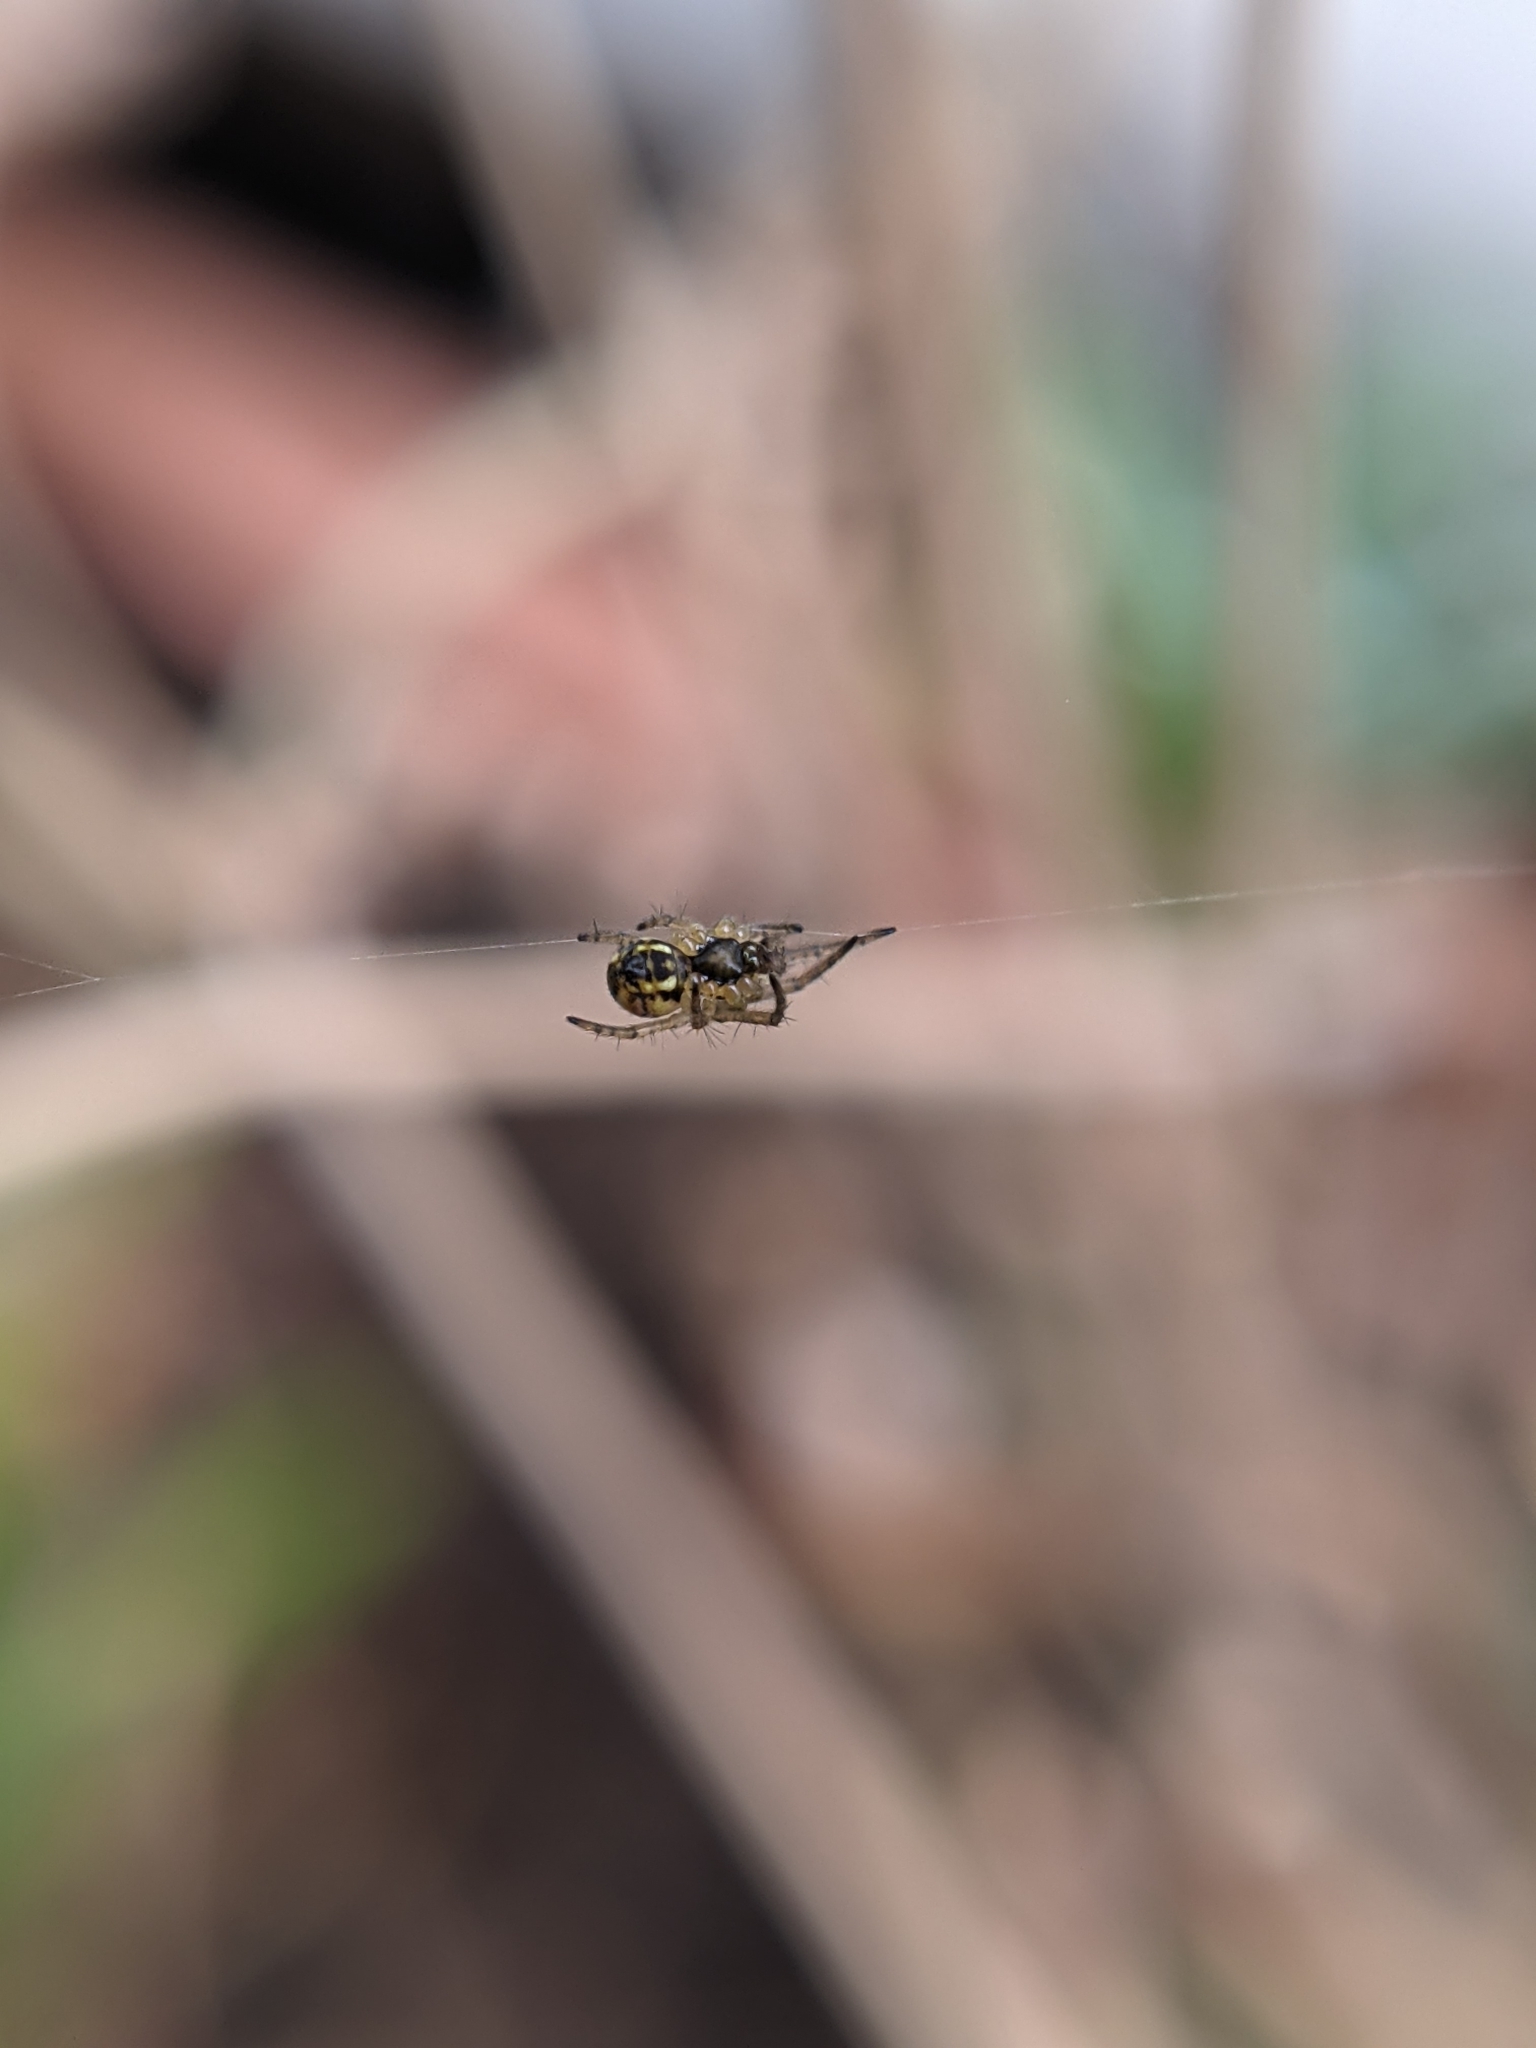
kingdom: Animalia
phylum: Arthropoda
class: Arachnida
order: Araneae
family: Araneidae
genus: Mangora
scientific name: Mangora acalypha
